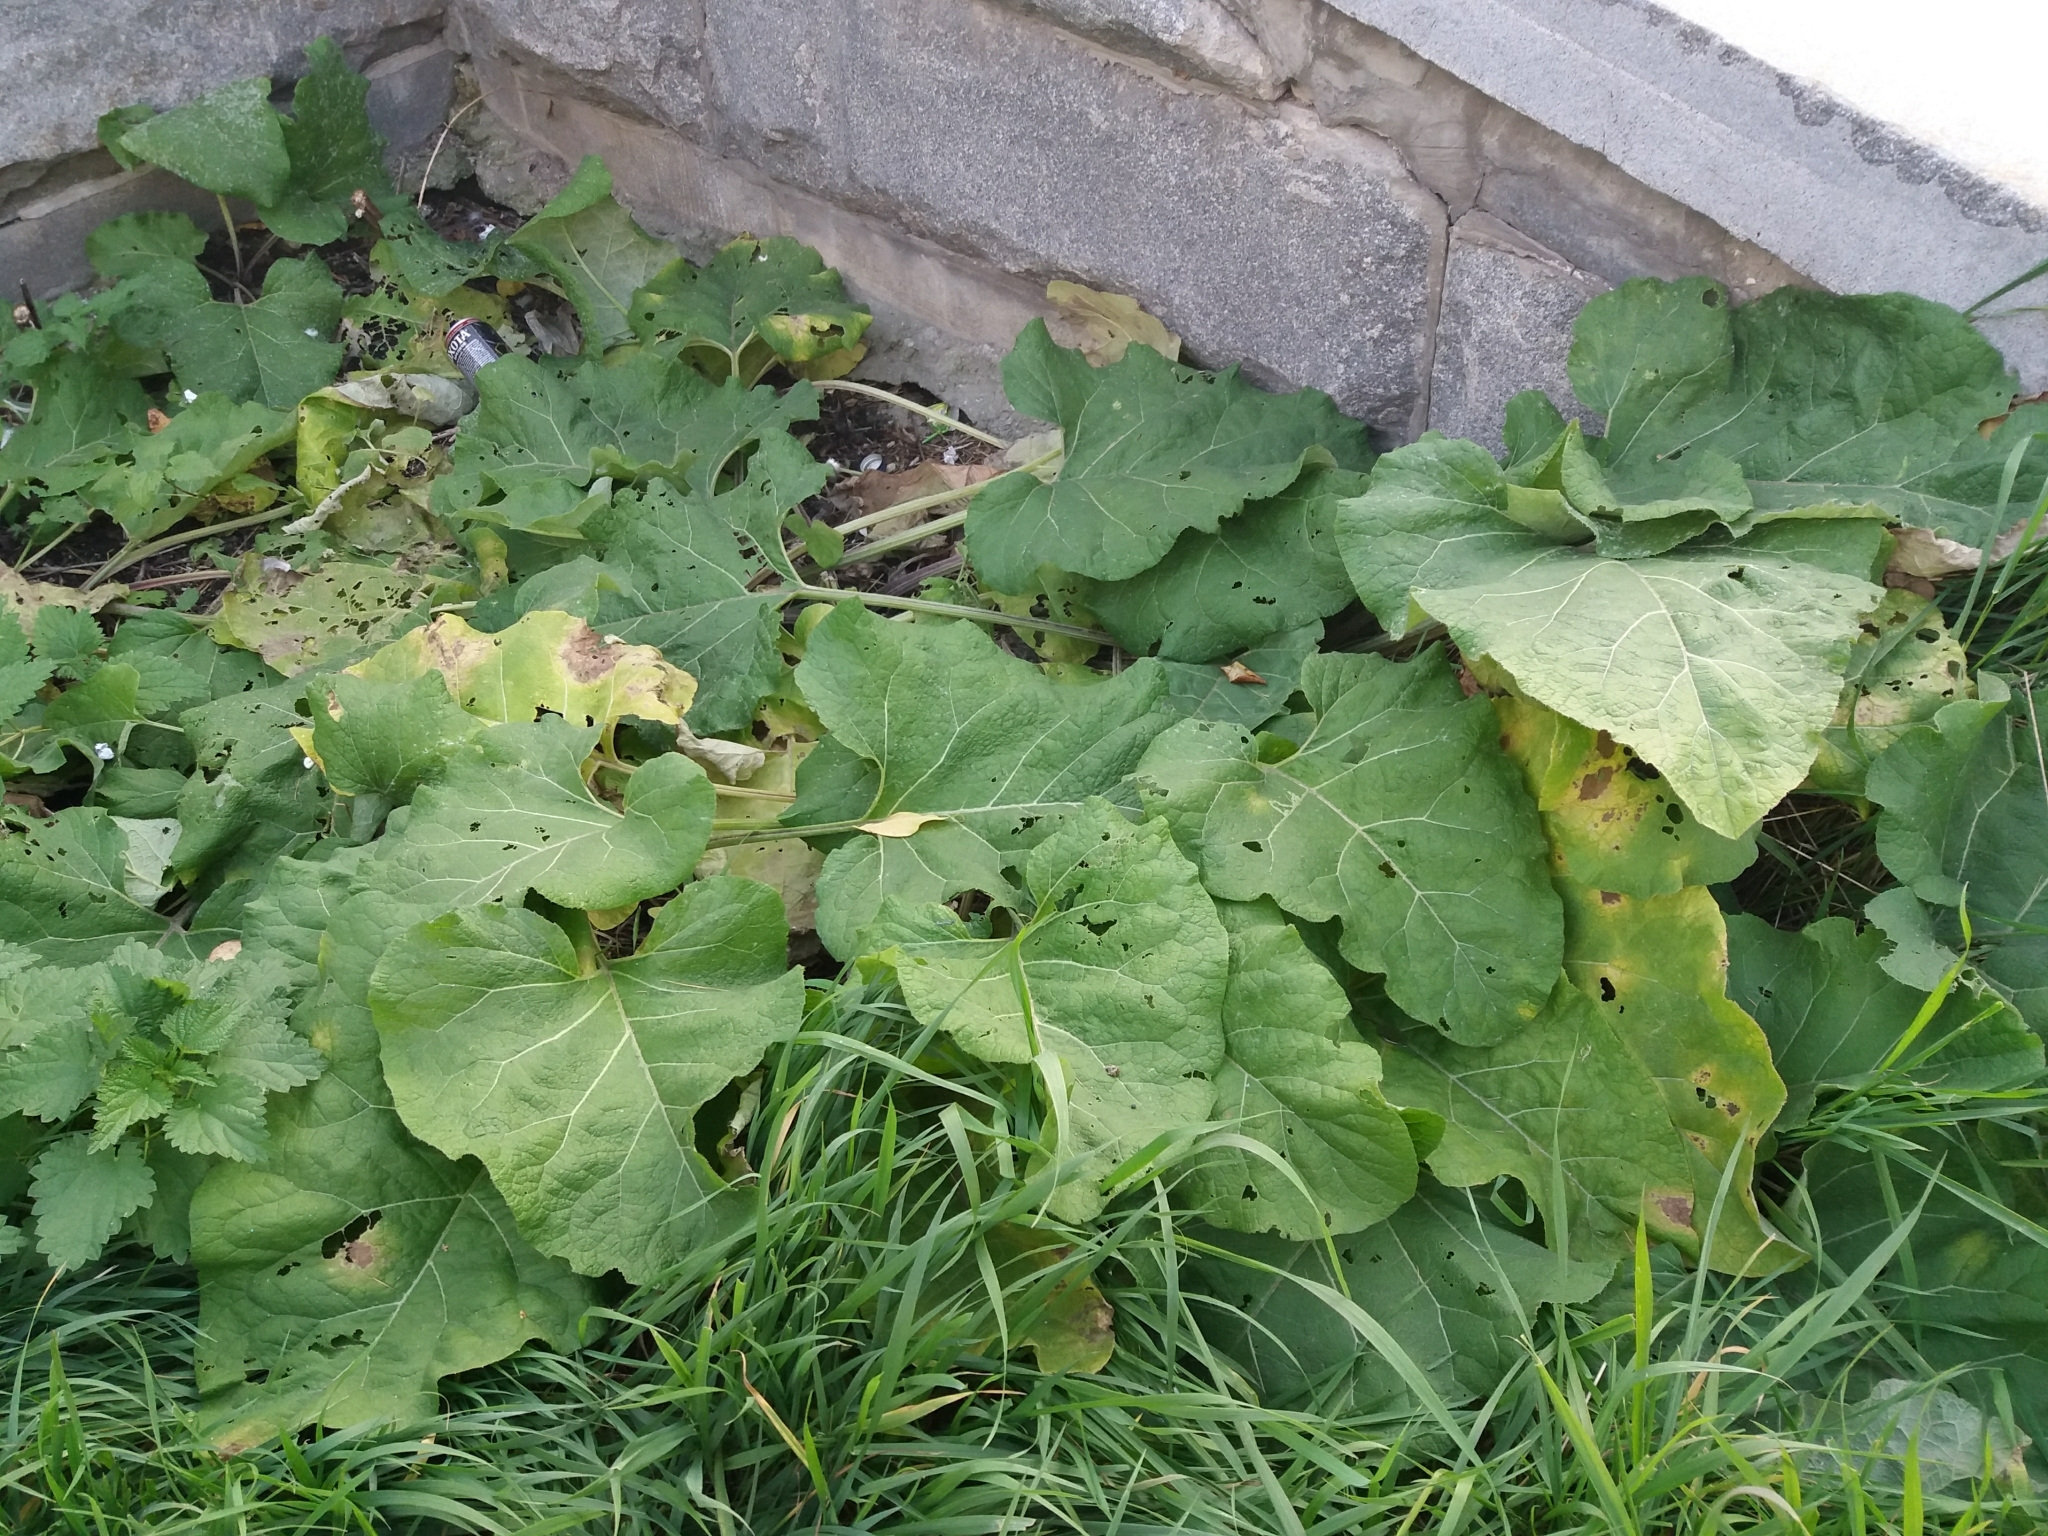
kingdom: Plantae
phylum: Tracheophyta
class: Magnoliopsida
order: Asterales
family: Asteraceae
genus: Arctium
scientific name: Arctium tomentosum
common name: Woolly burdock
